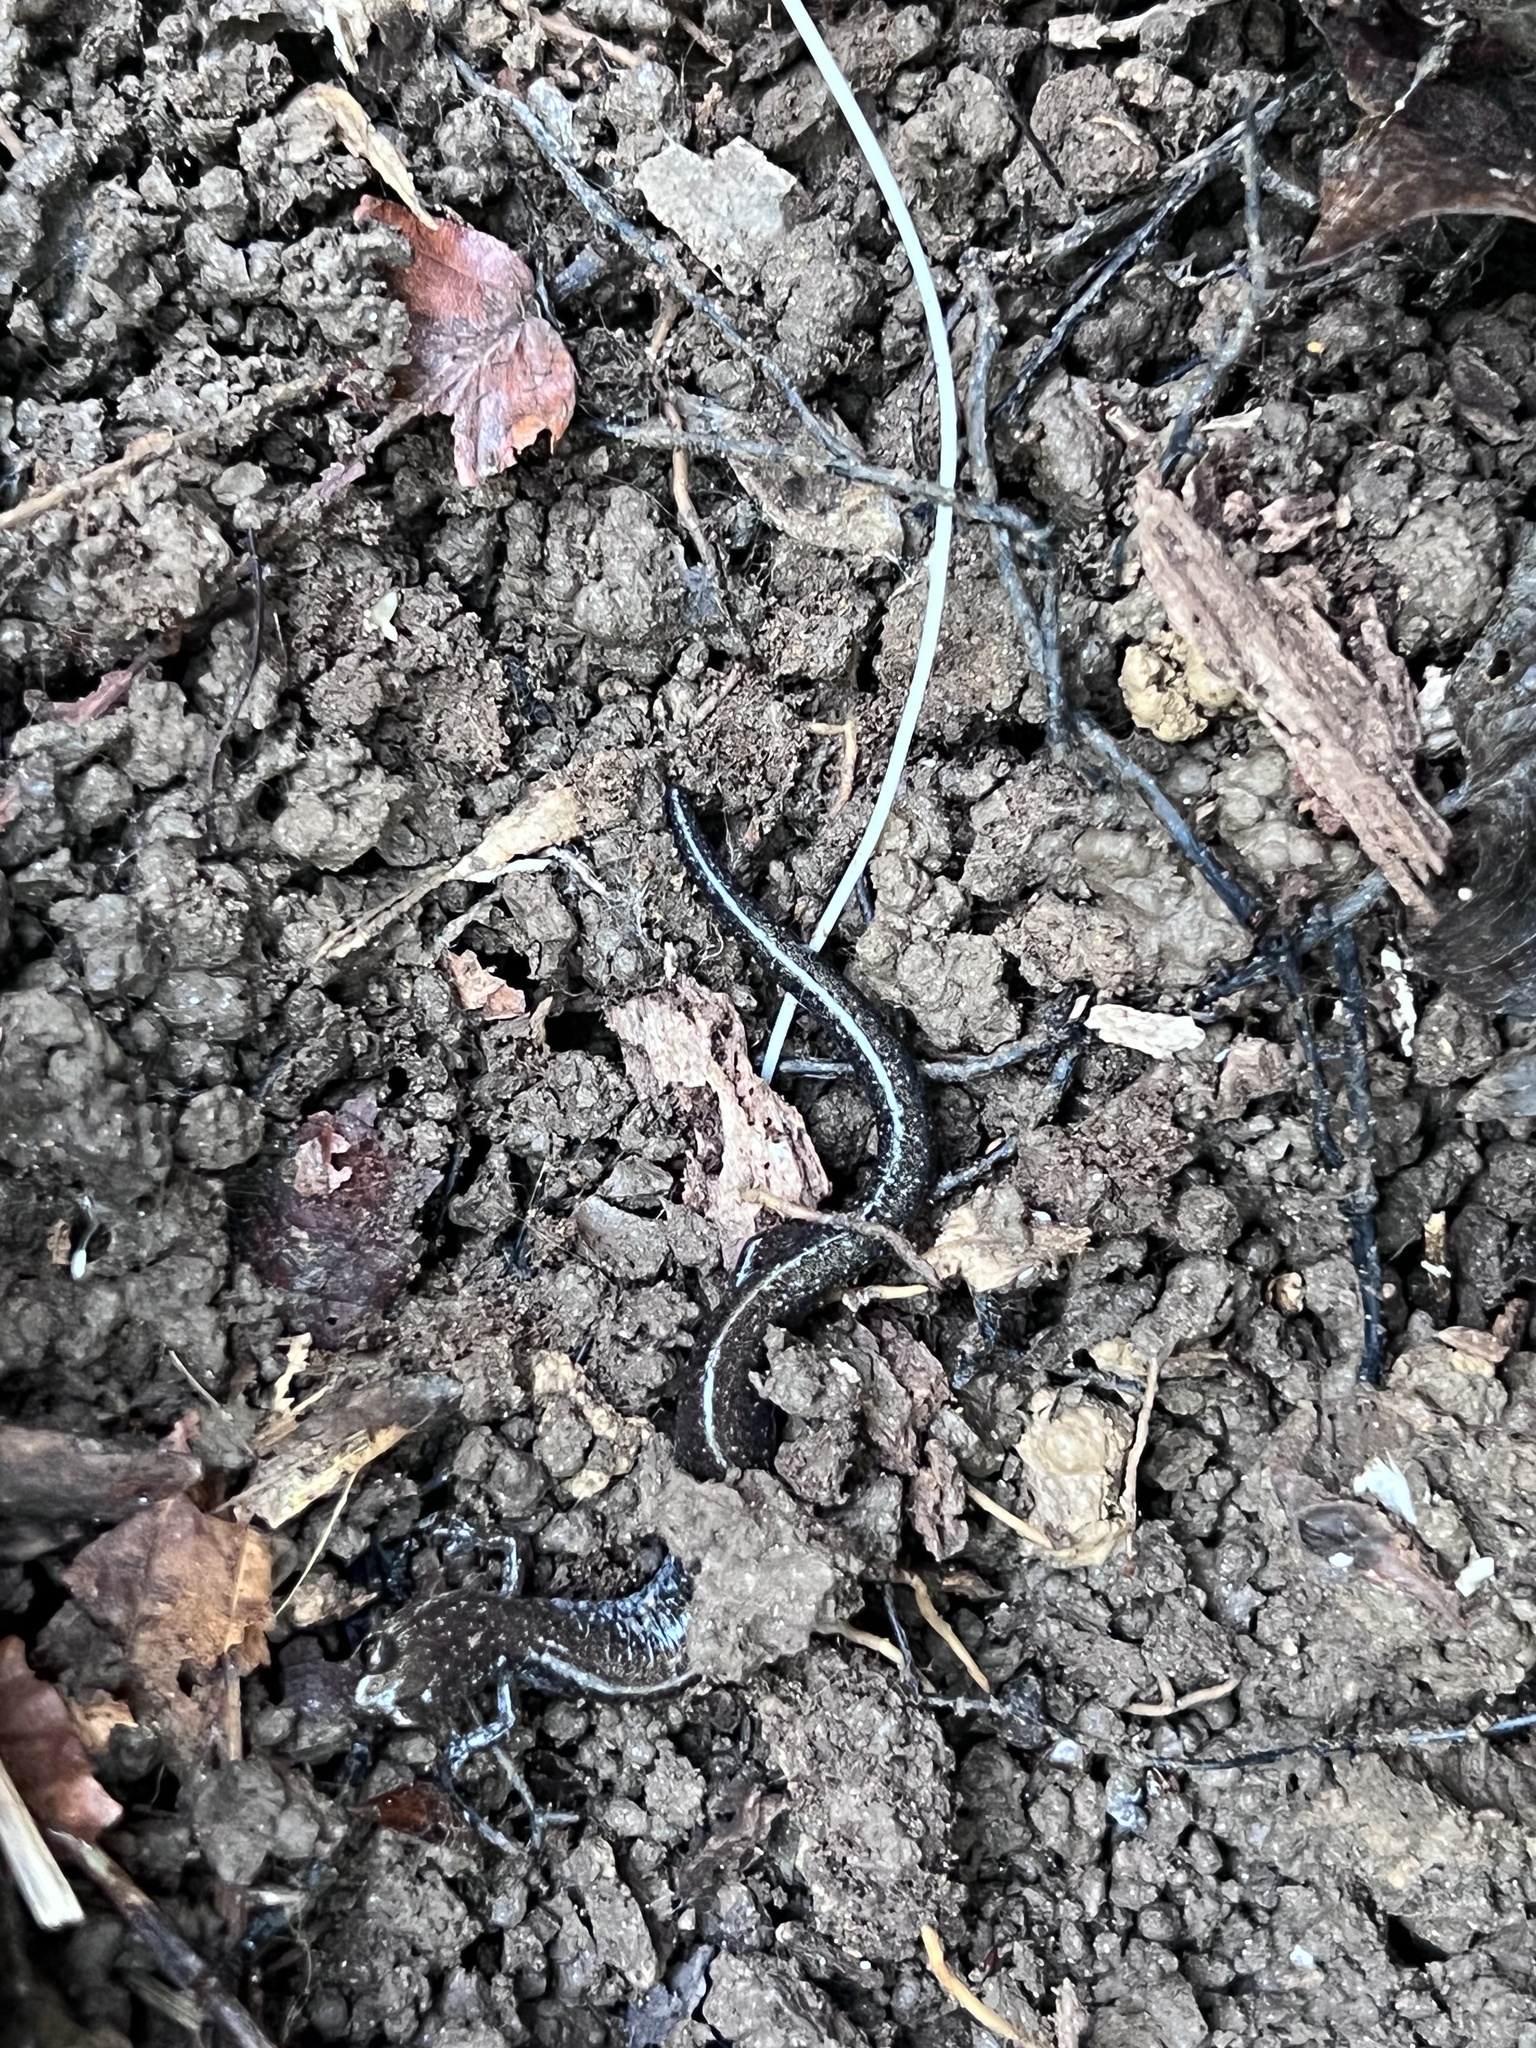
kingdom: Animalia
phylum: Chordata
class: Amphibia
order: Caudata
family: Plethodontidae
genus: Plethodon
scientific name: Plethodon cinereus
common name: Redback salamander
